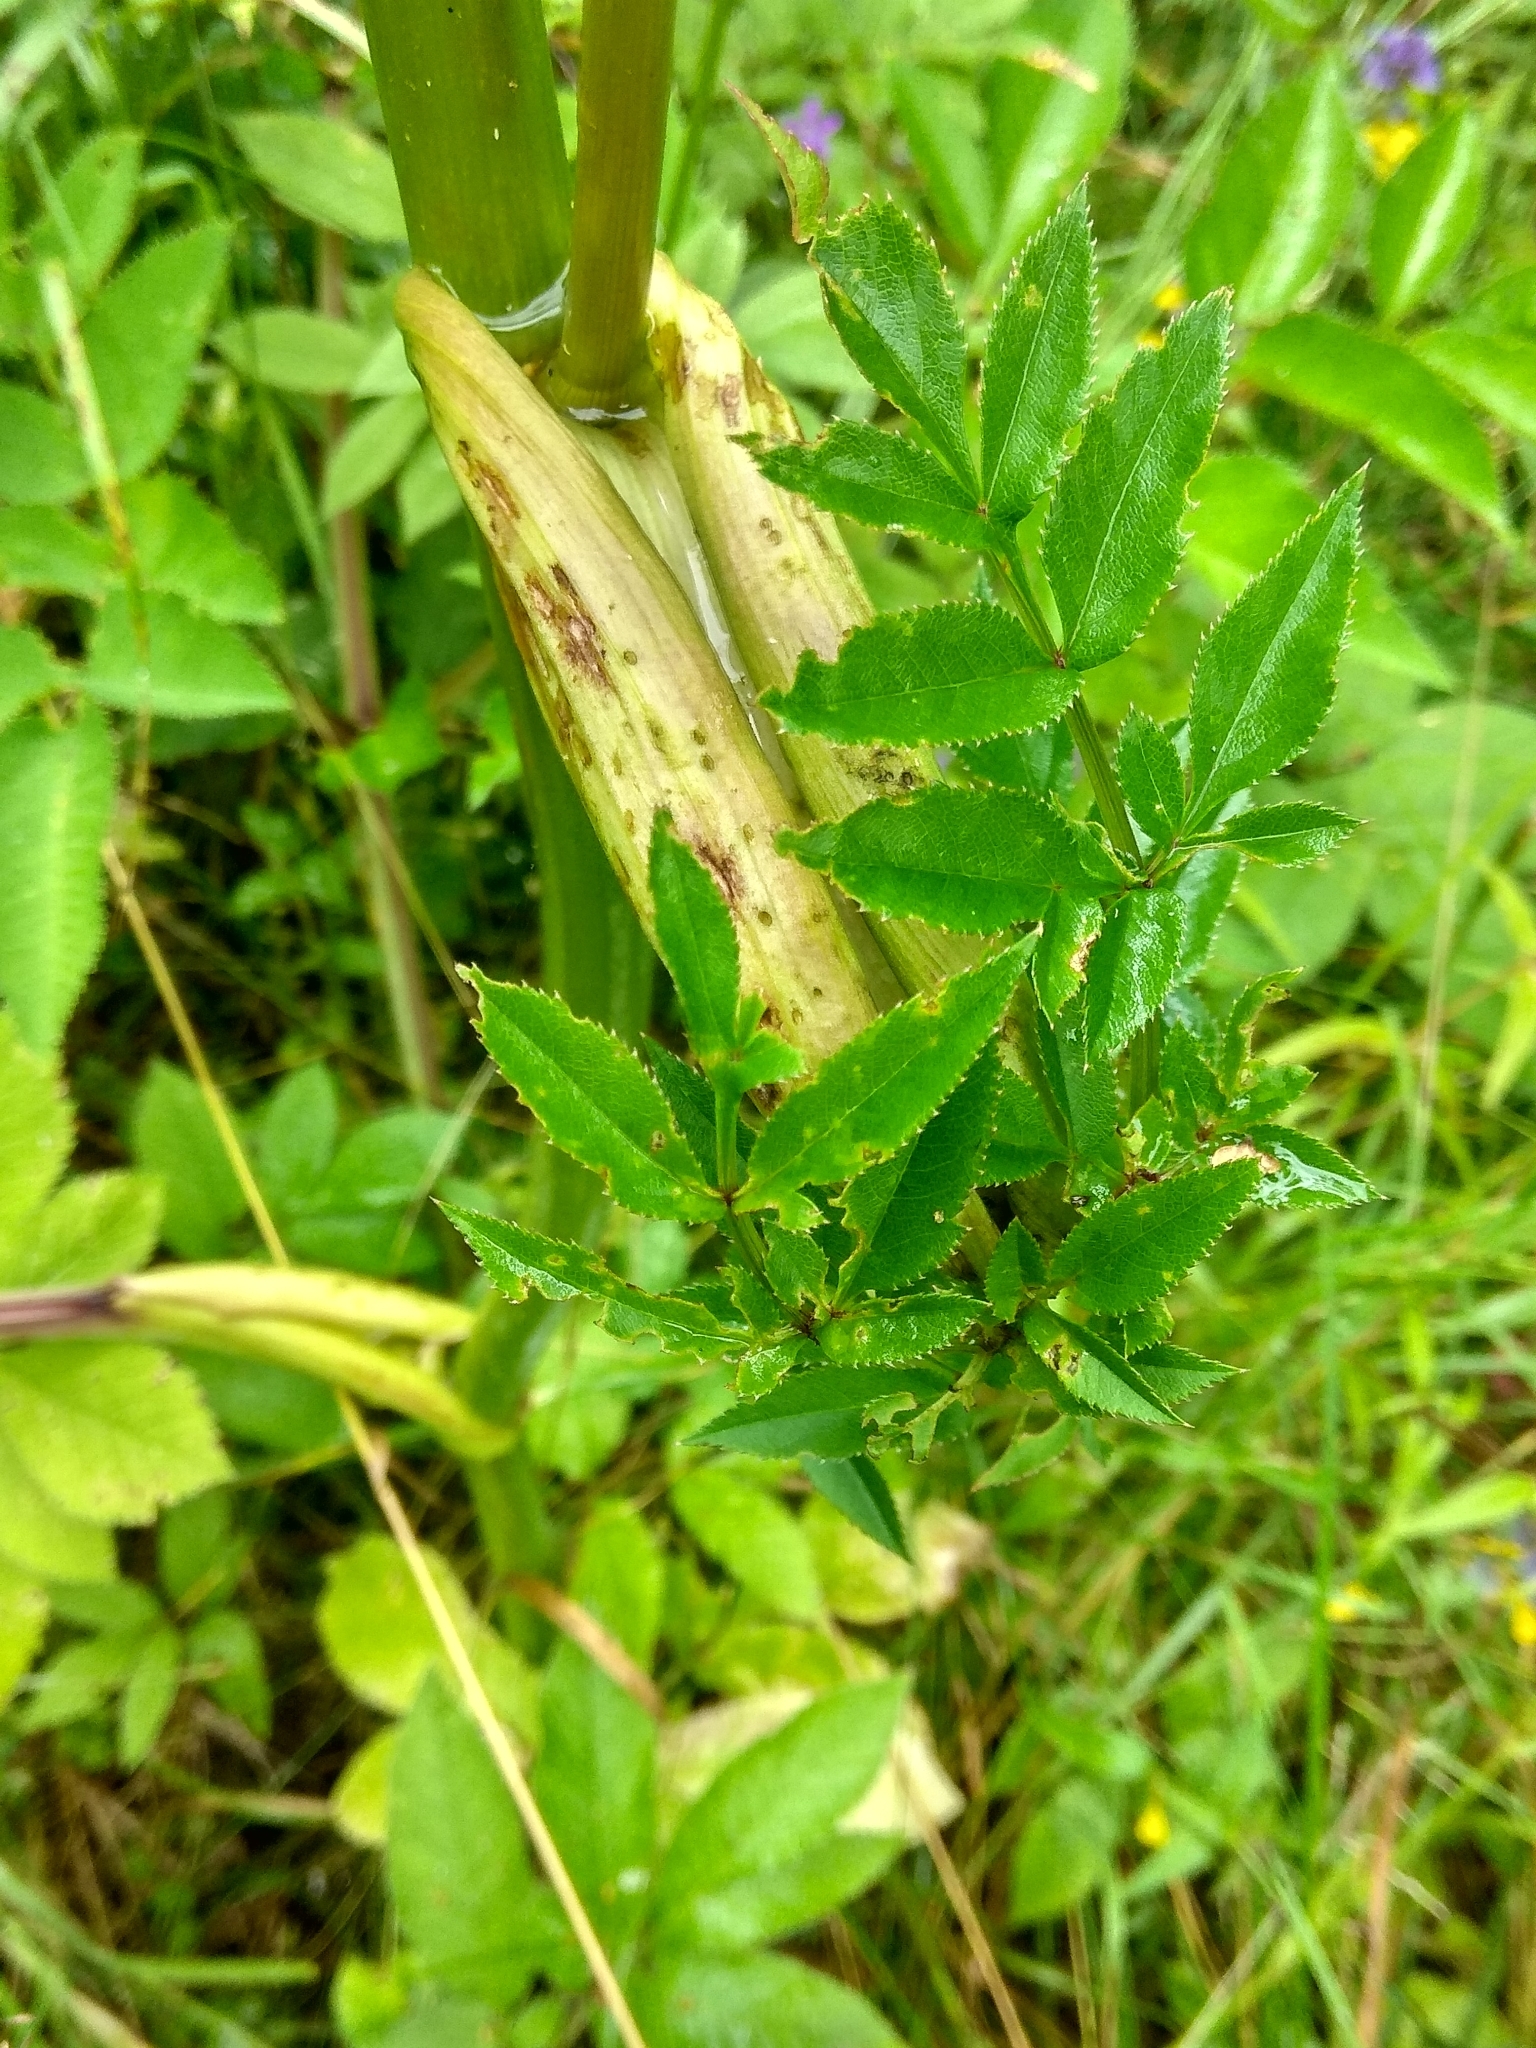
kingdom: Plantae
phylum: Tracheophyta
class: Magnoliopsida
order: Apiales
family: Apiaceae
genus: Angelica
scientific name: Angelica sylvestris
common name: Wild angelica
